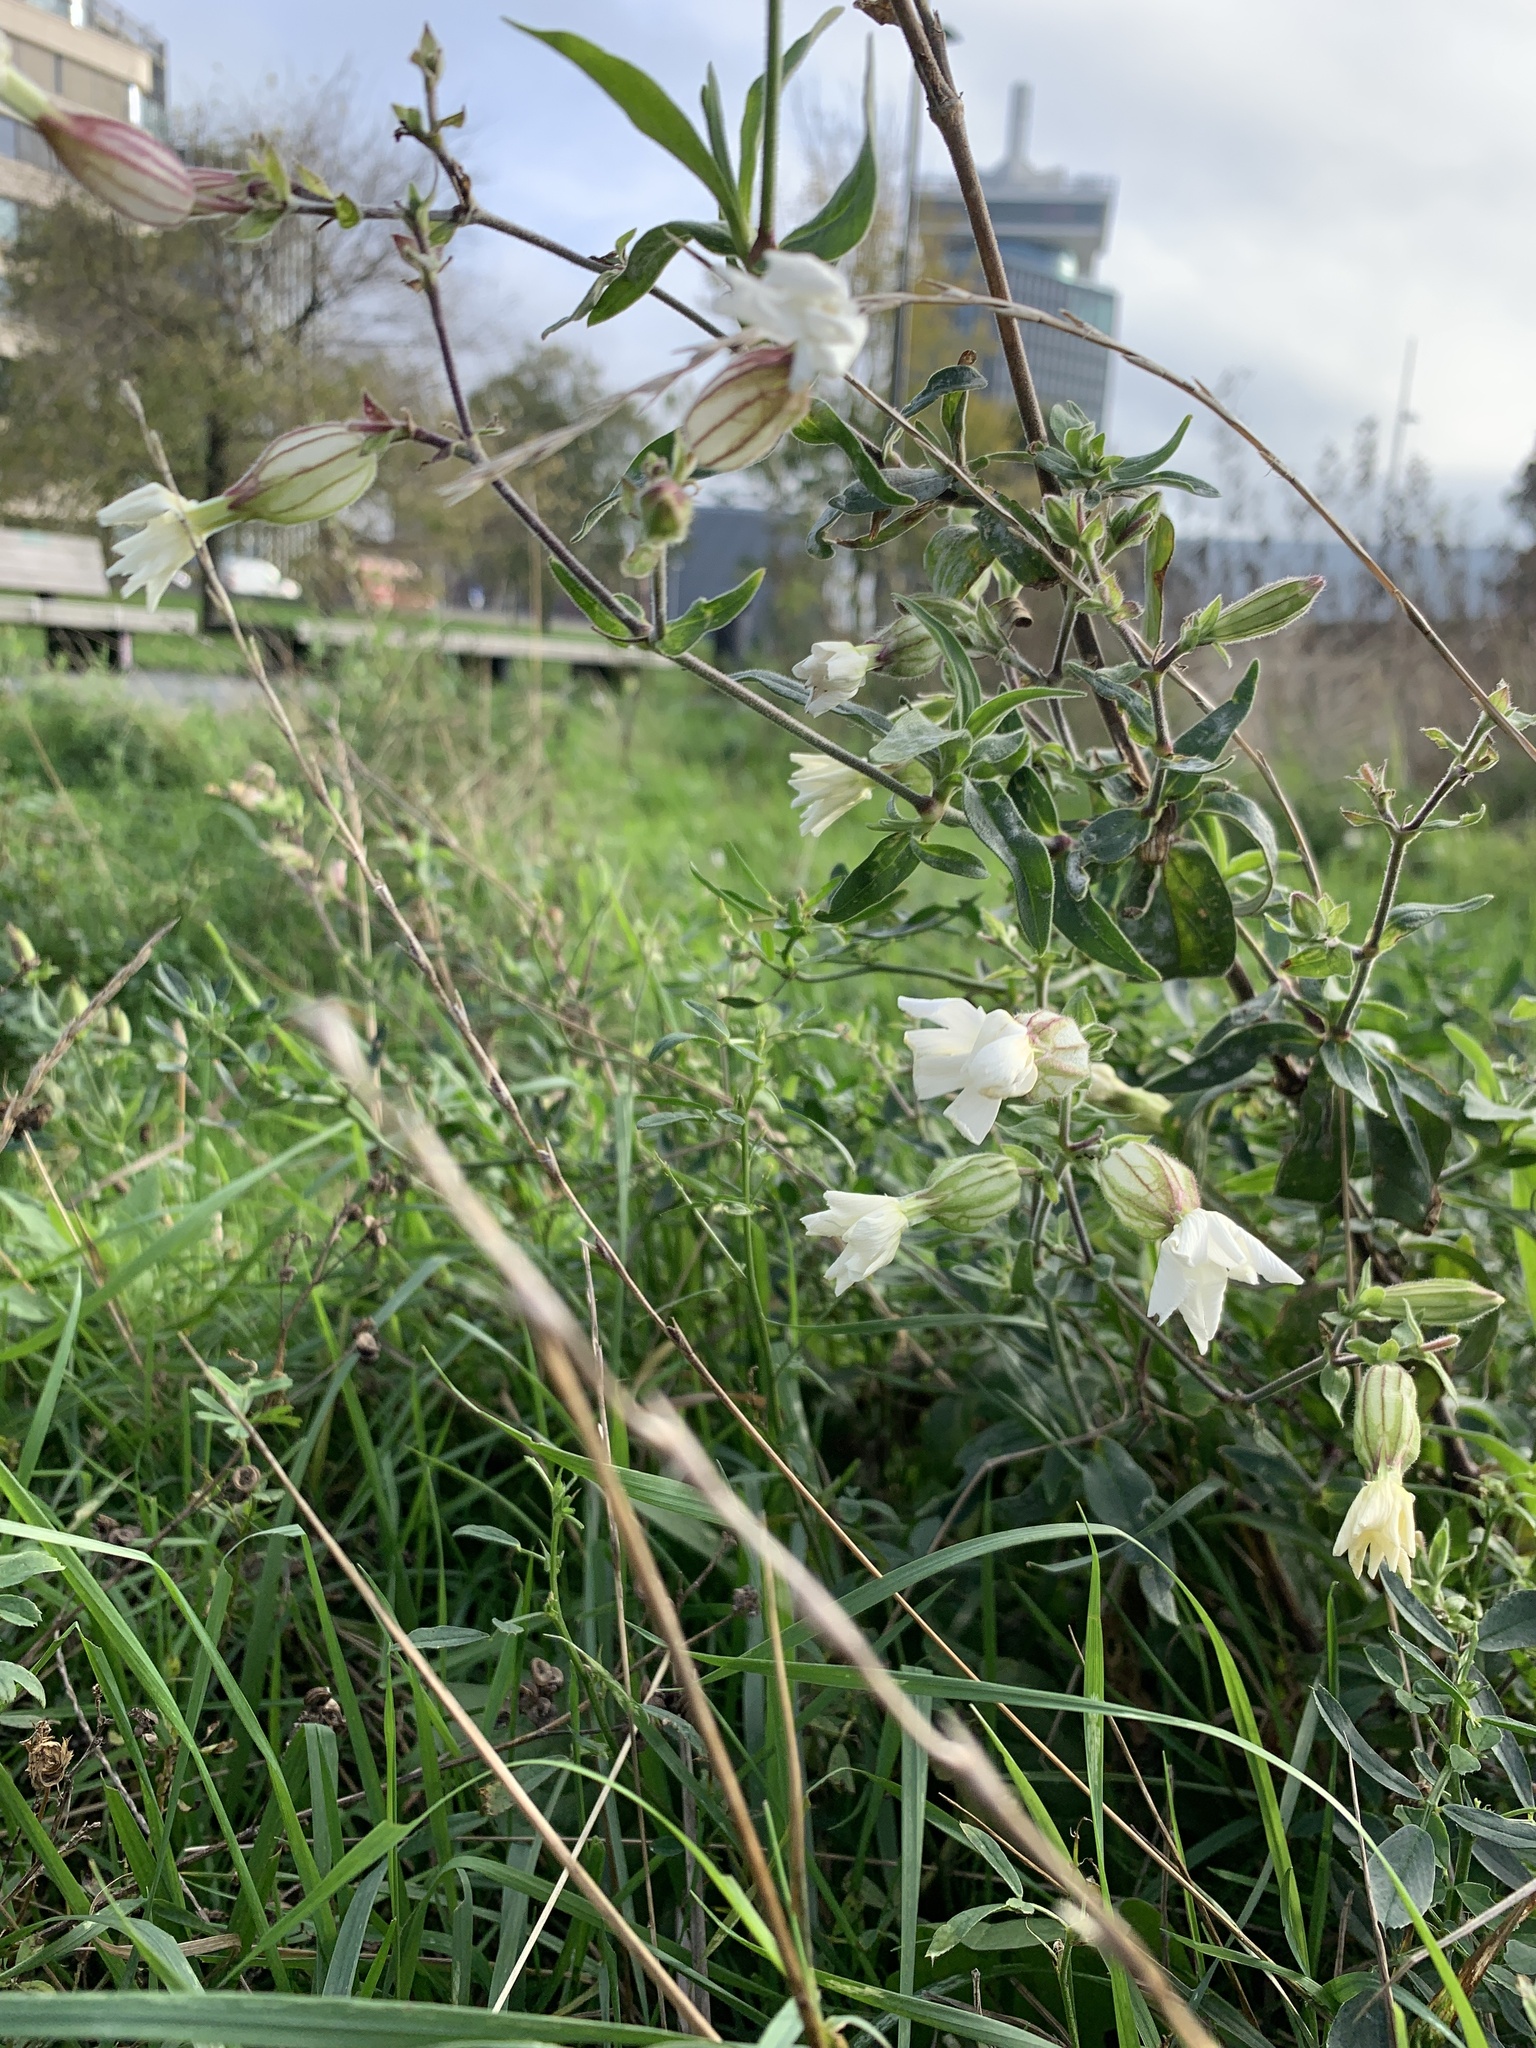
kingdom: Plantae
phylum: Tracheophyta
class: Magnoliopsida
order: Caryophyllales
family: Caryophyllaceae
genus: Silene
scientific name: Silene latifolia
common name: White campion
